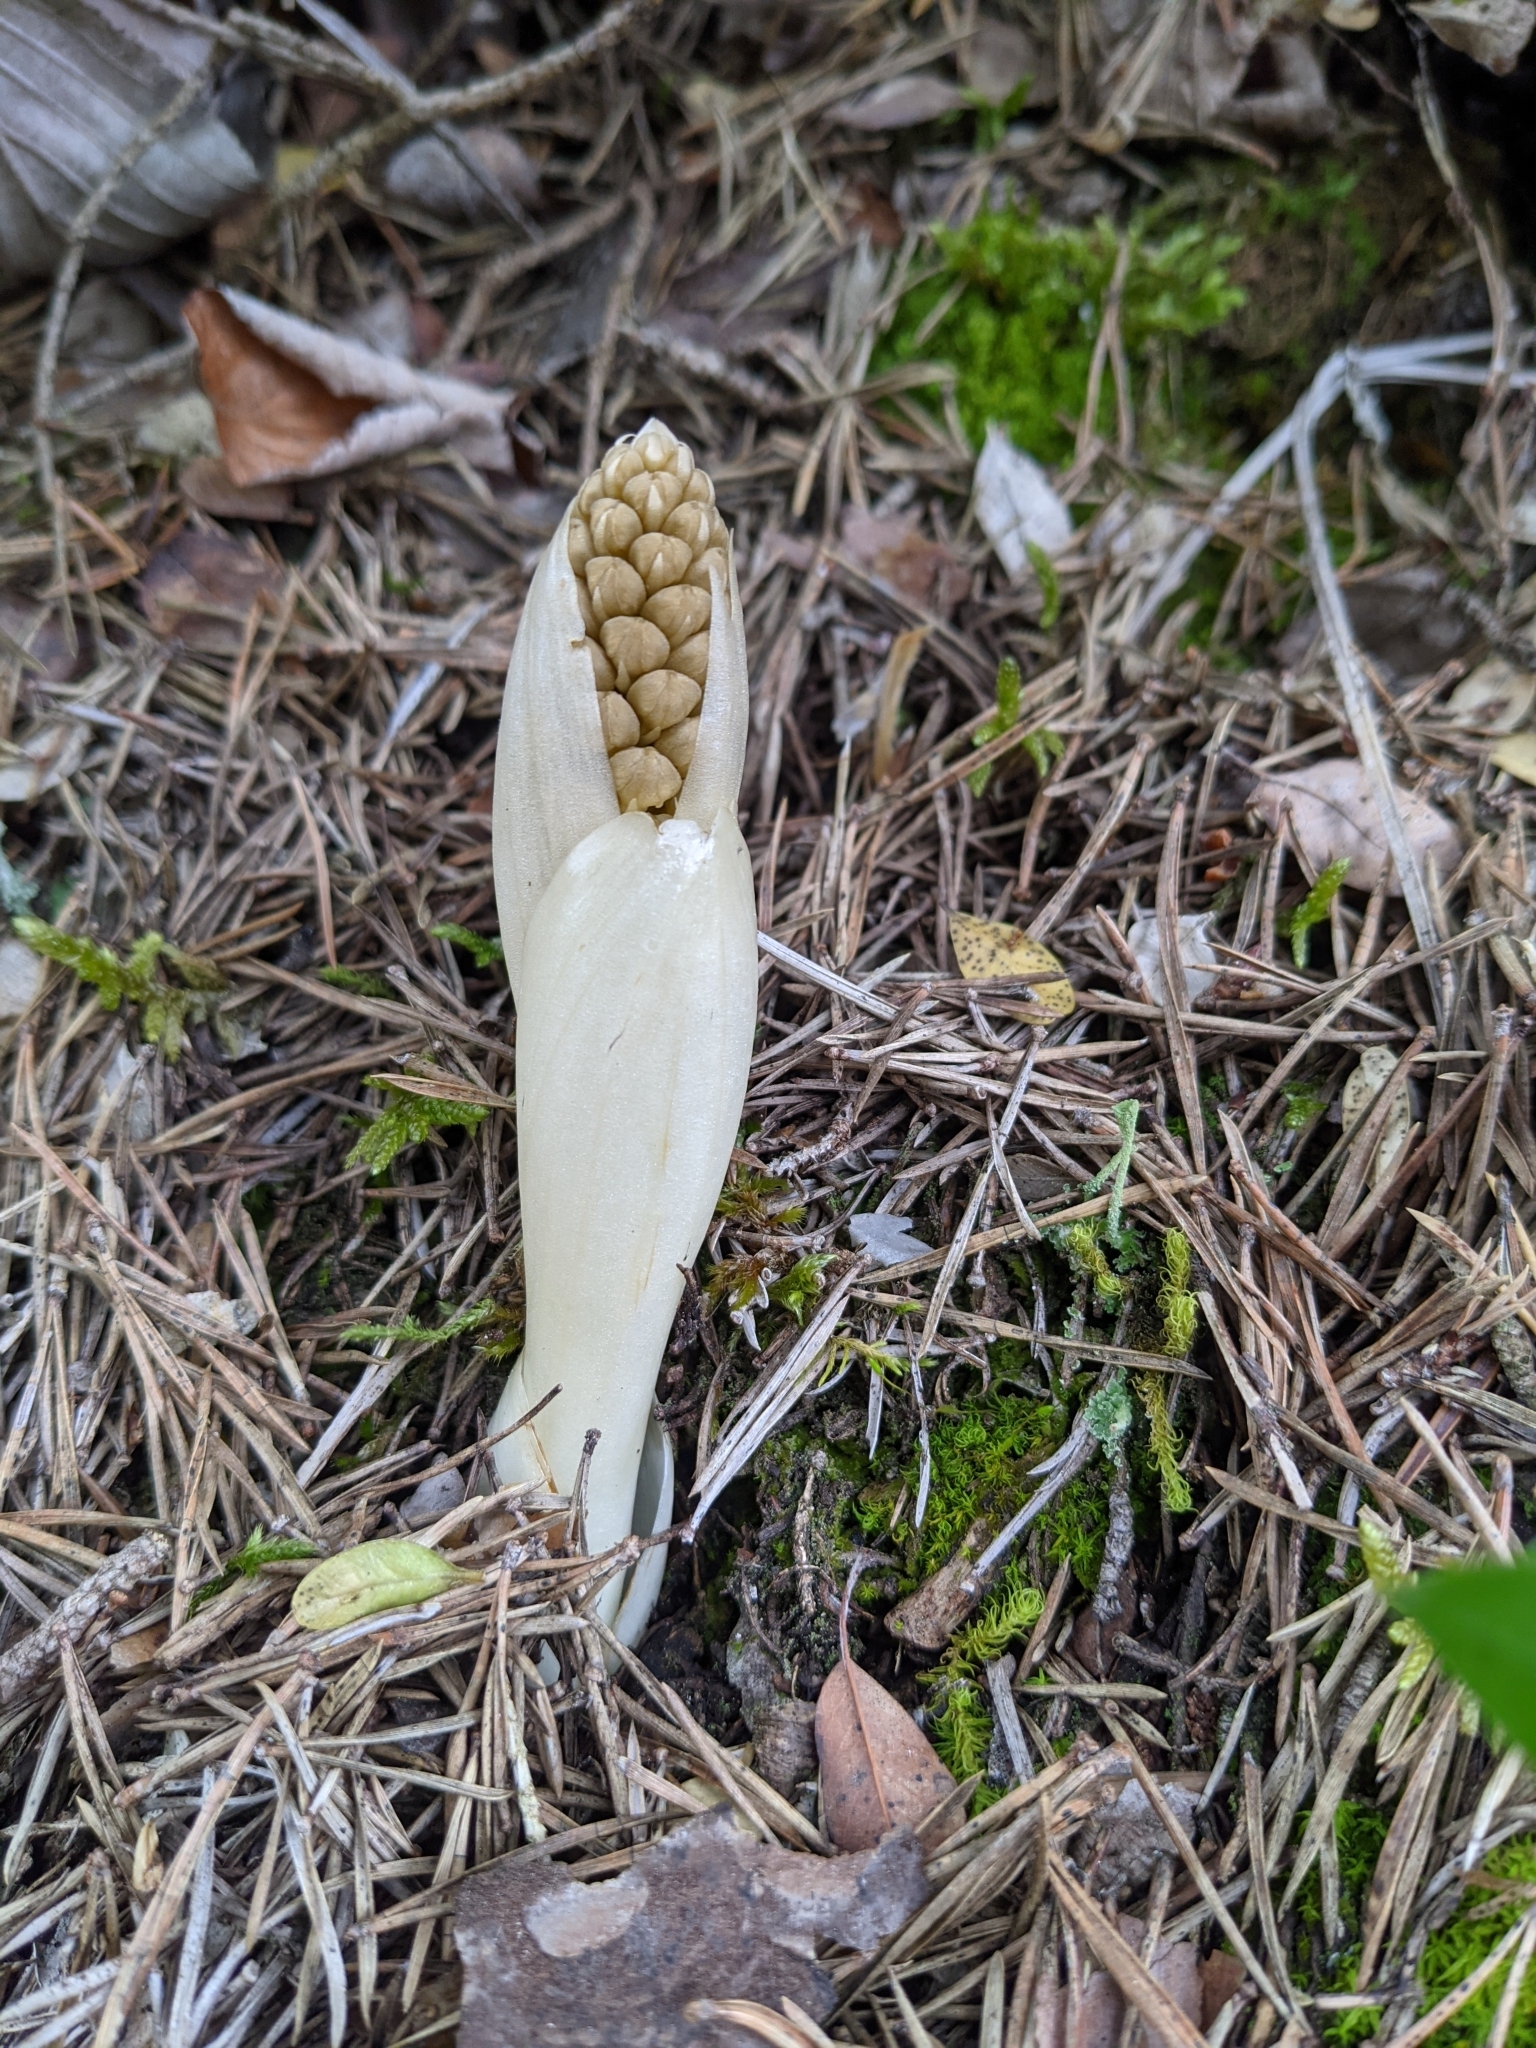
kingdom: Plantae
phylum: Tracheophyta
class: Liliopsida
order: Asparagales
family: Orchidaceae
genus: Neottia
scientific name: Neottia nidus-avis
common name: Bird's-nest orchid
